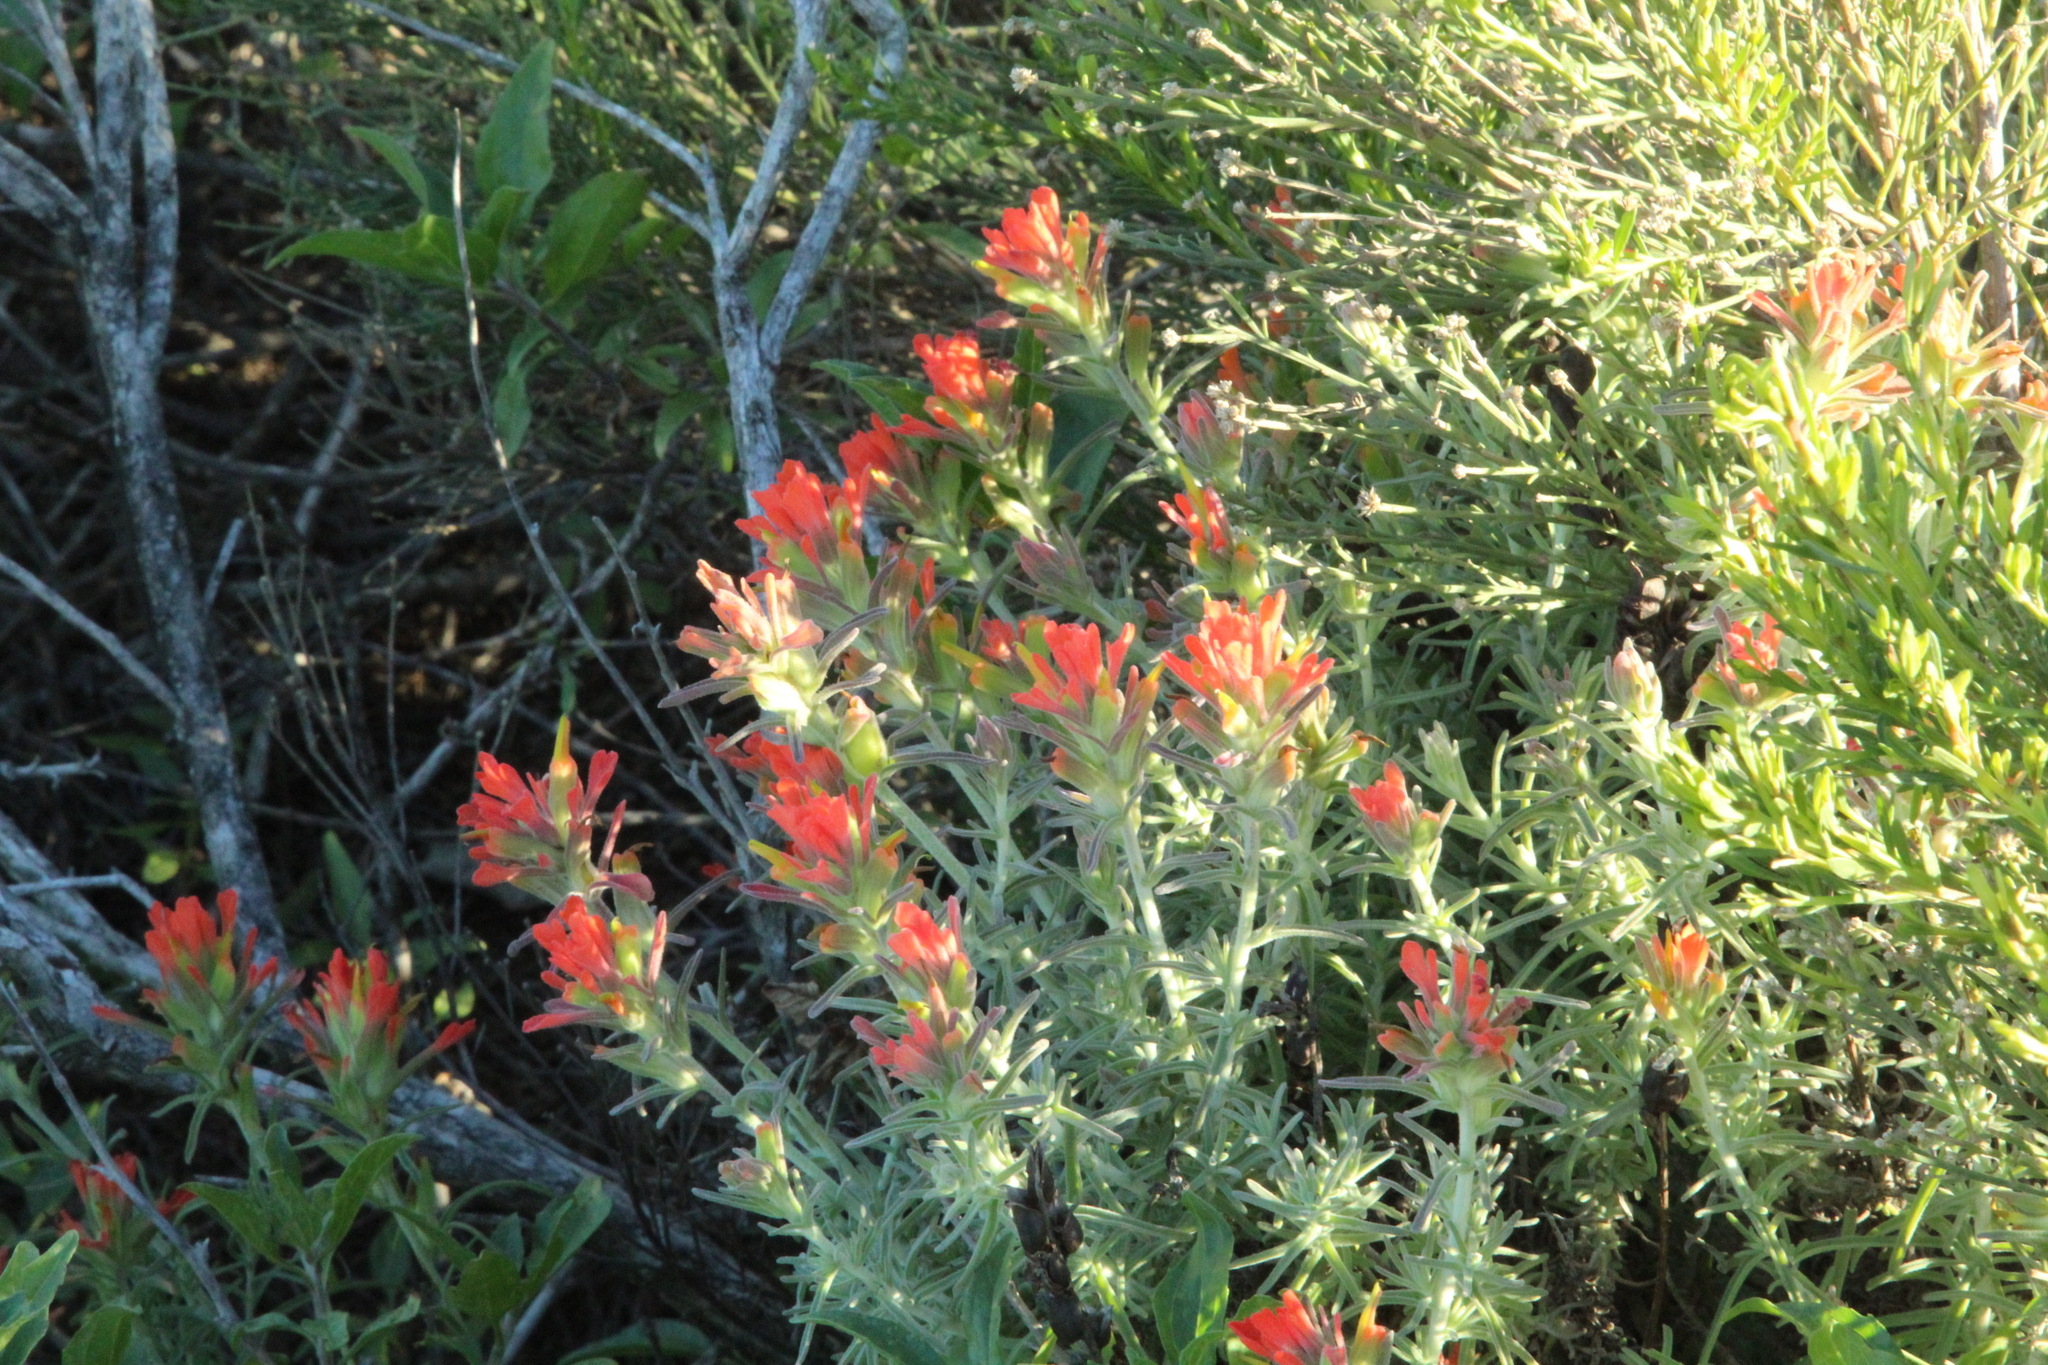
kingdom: Plantae
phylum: Tracheophyta
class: Magnoliopsida
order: Lamiales
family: Orobanchaceae
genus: Castilleja
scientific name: Castilleja foliolosa
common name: Woolly indian paintbrush
